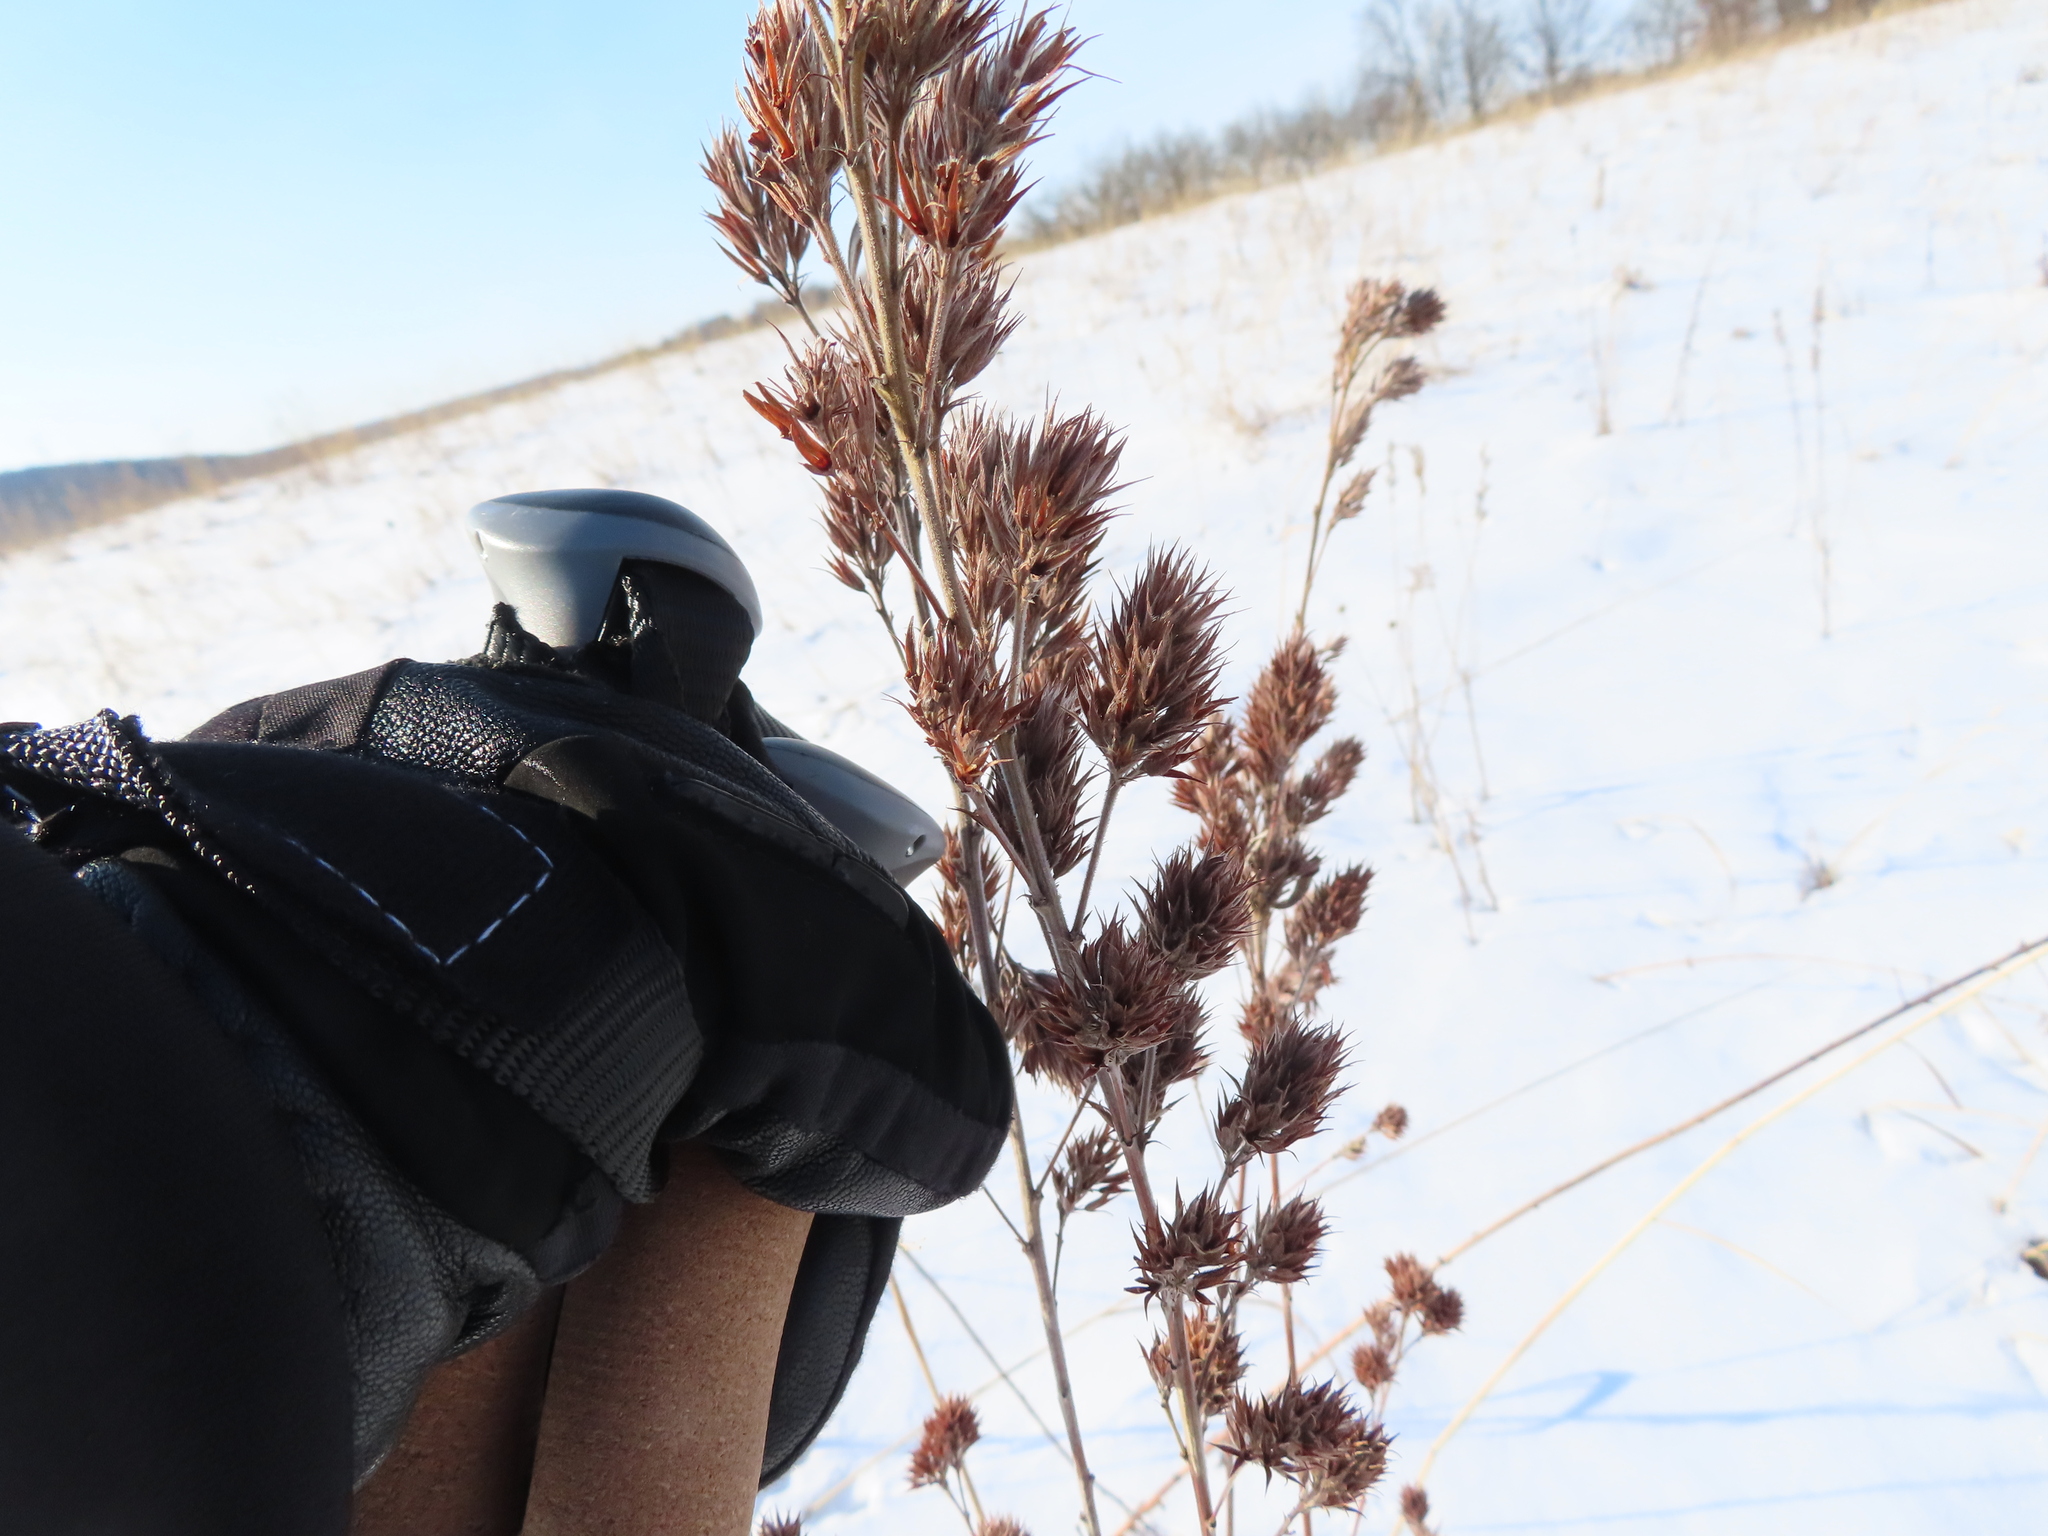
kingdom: Plantae
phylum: Tracheophyta
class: Magnoliopsida
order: Fabales
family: Fabaceae
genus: Lespedeza
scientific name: Lespedeza capitata
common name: Dusty clover
